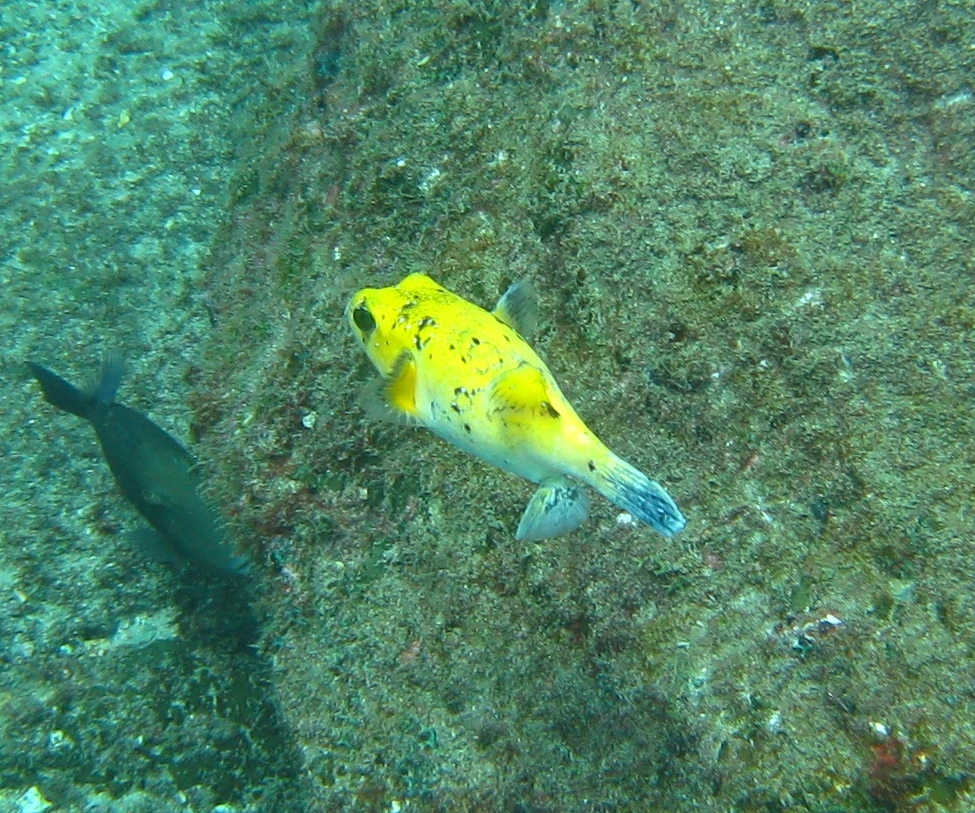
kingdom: Animalia
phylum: Chordata
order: Tetraodontiformes
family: Tetraodontidae
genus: Arothron
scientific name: Arothron meleagris
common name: Guinea-fowl pufferfish
